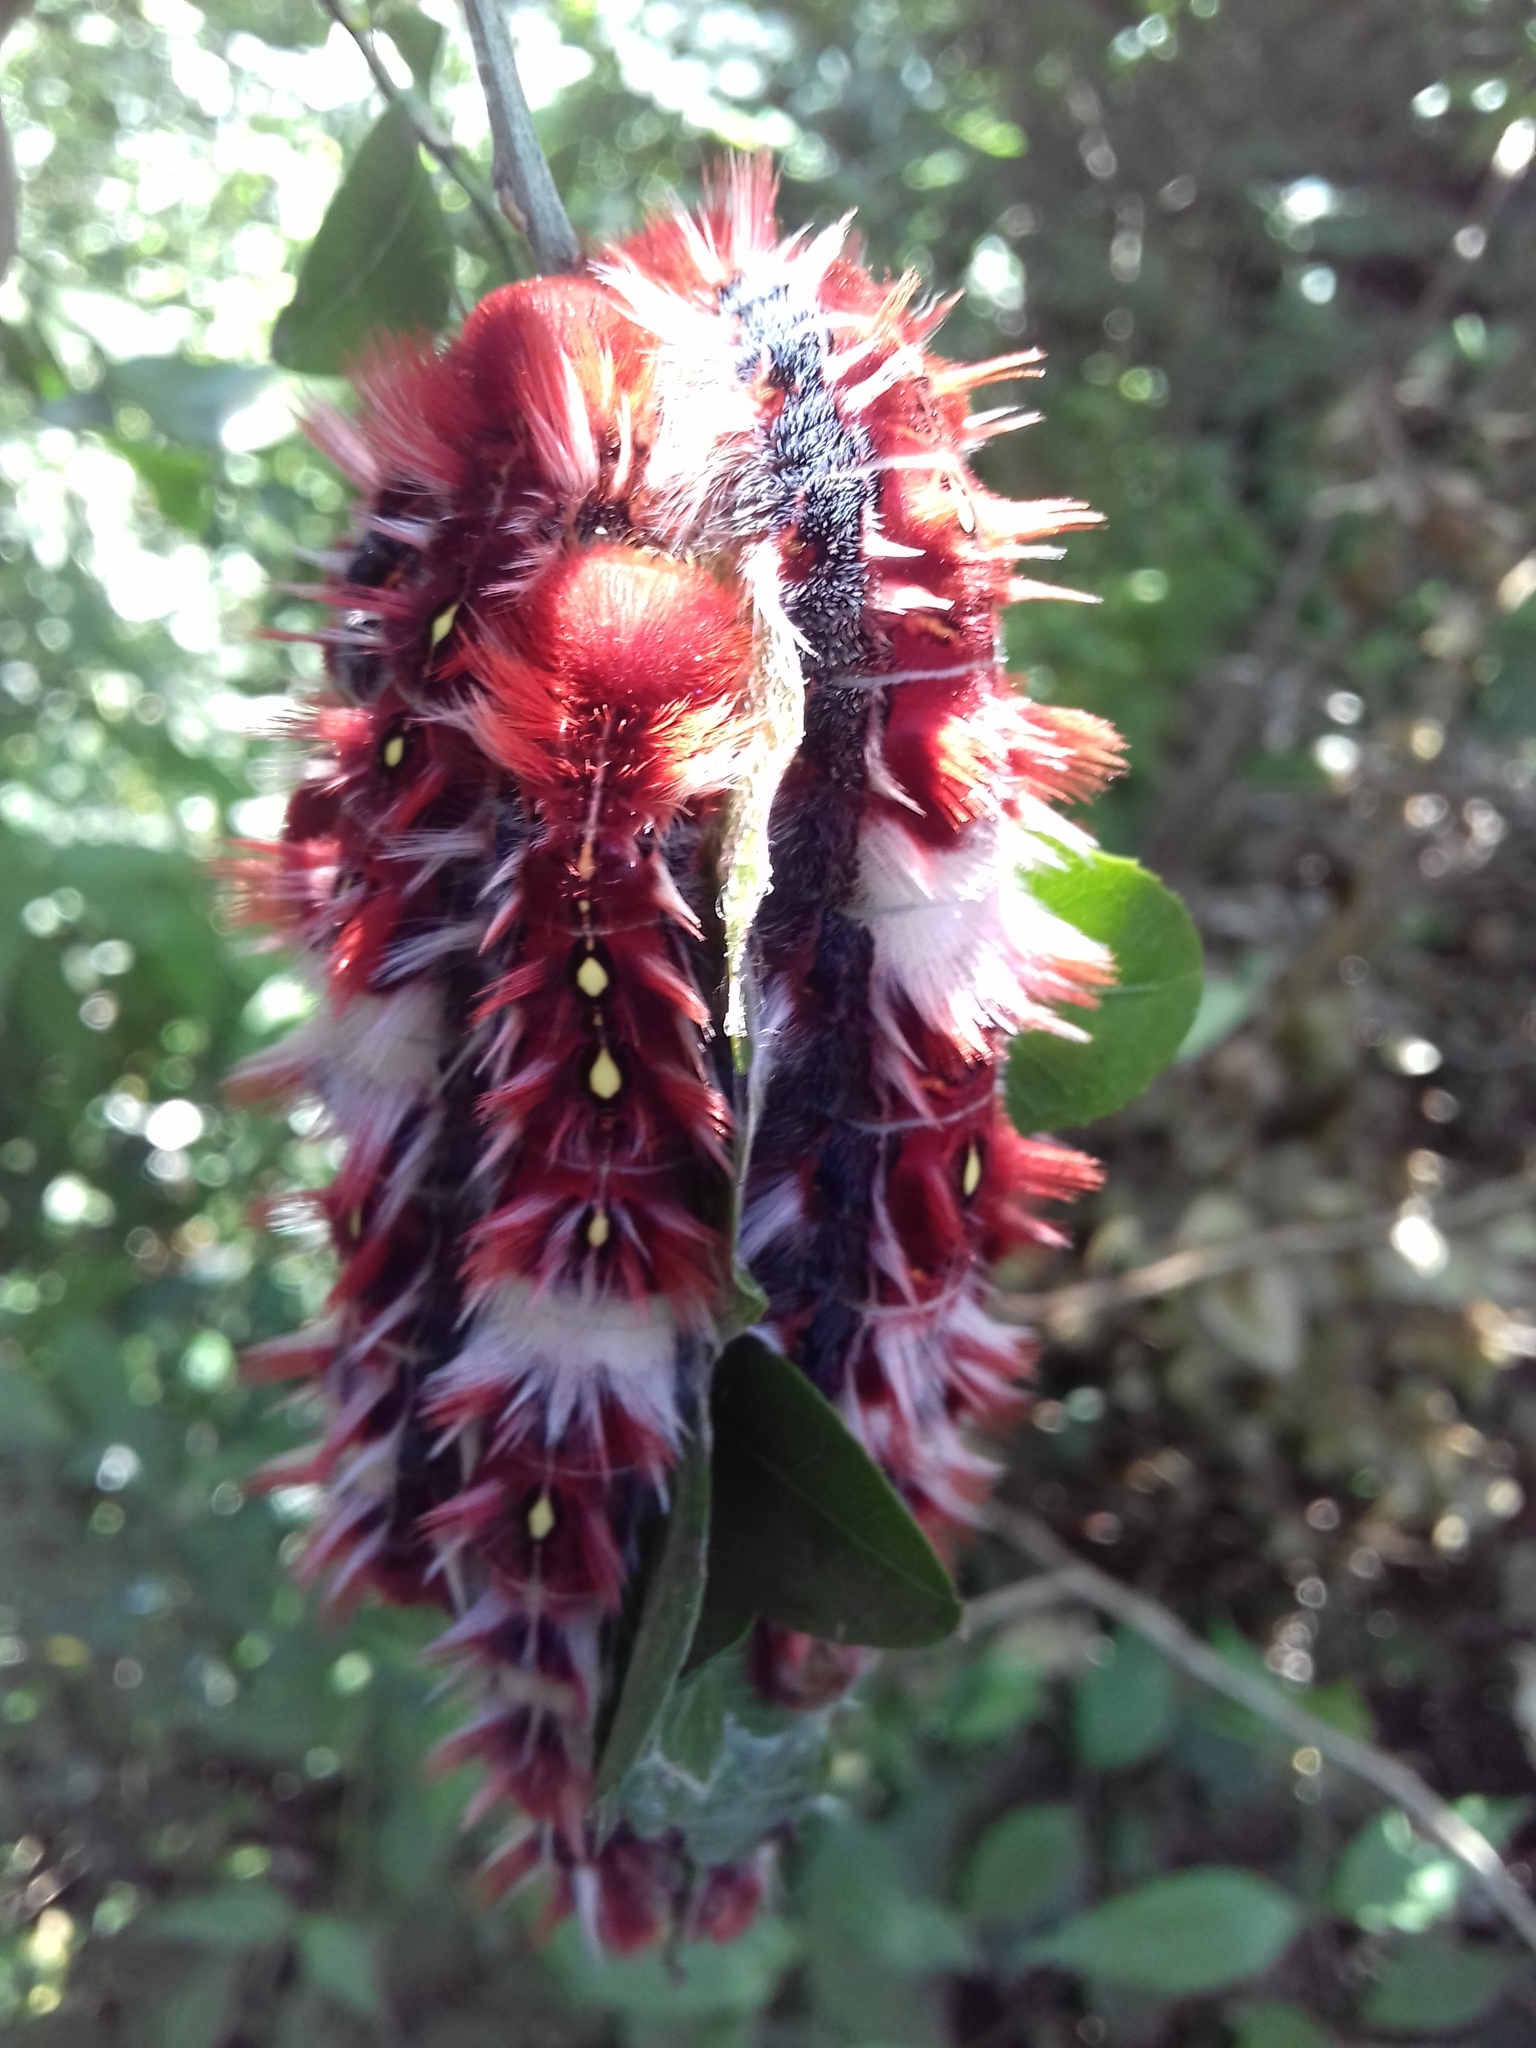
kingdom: Animalia
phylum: Arthropoda
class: Insecta
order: Lepidoptera
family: Nymphalidae
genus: Morpho
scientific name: Morpho epistrophus
